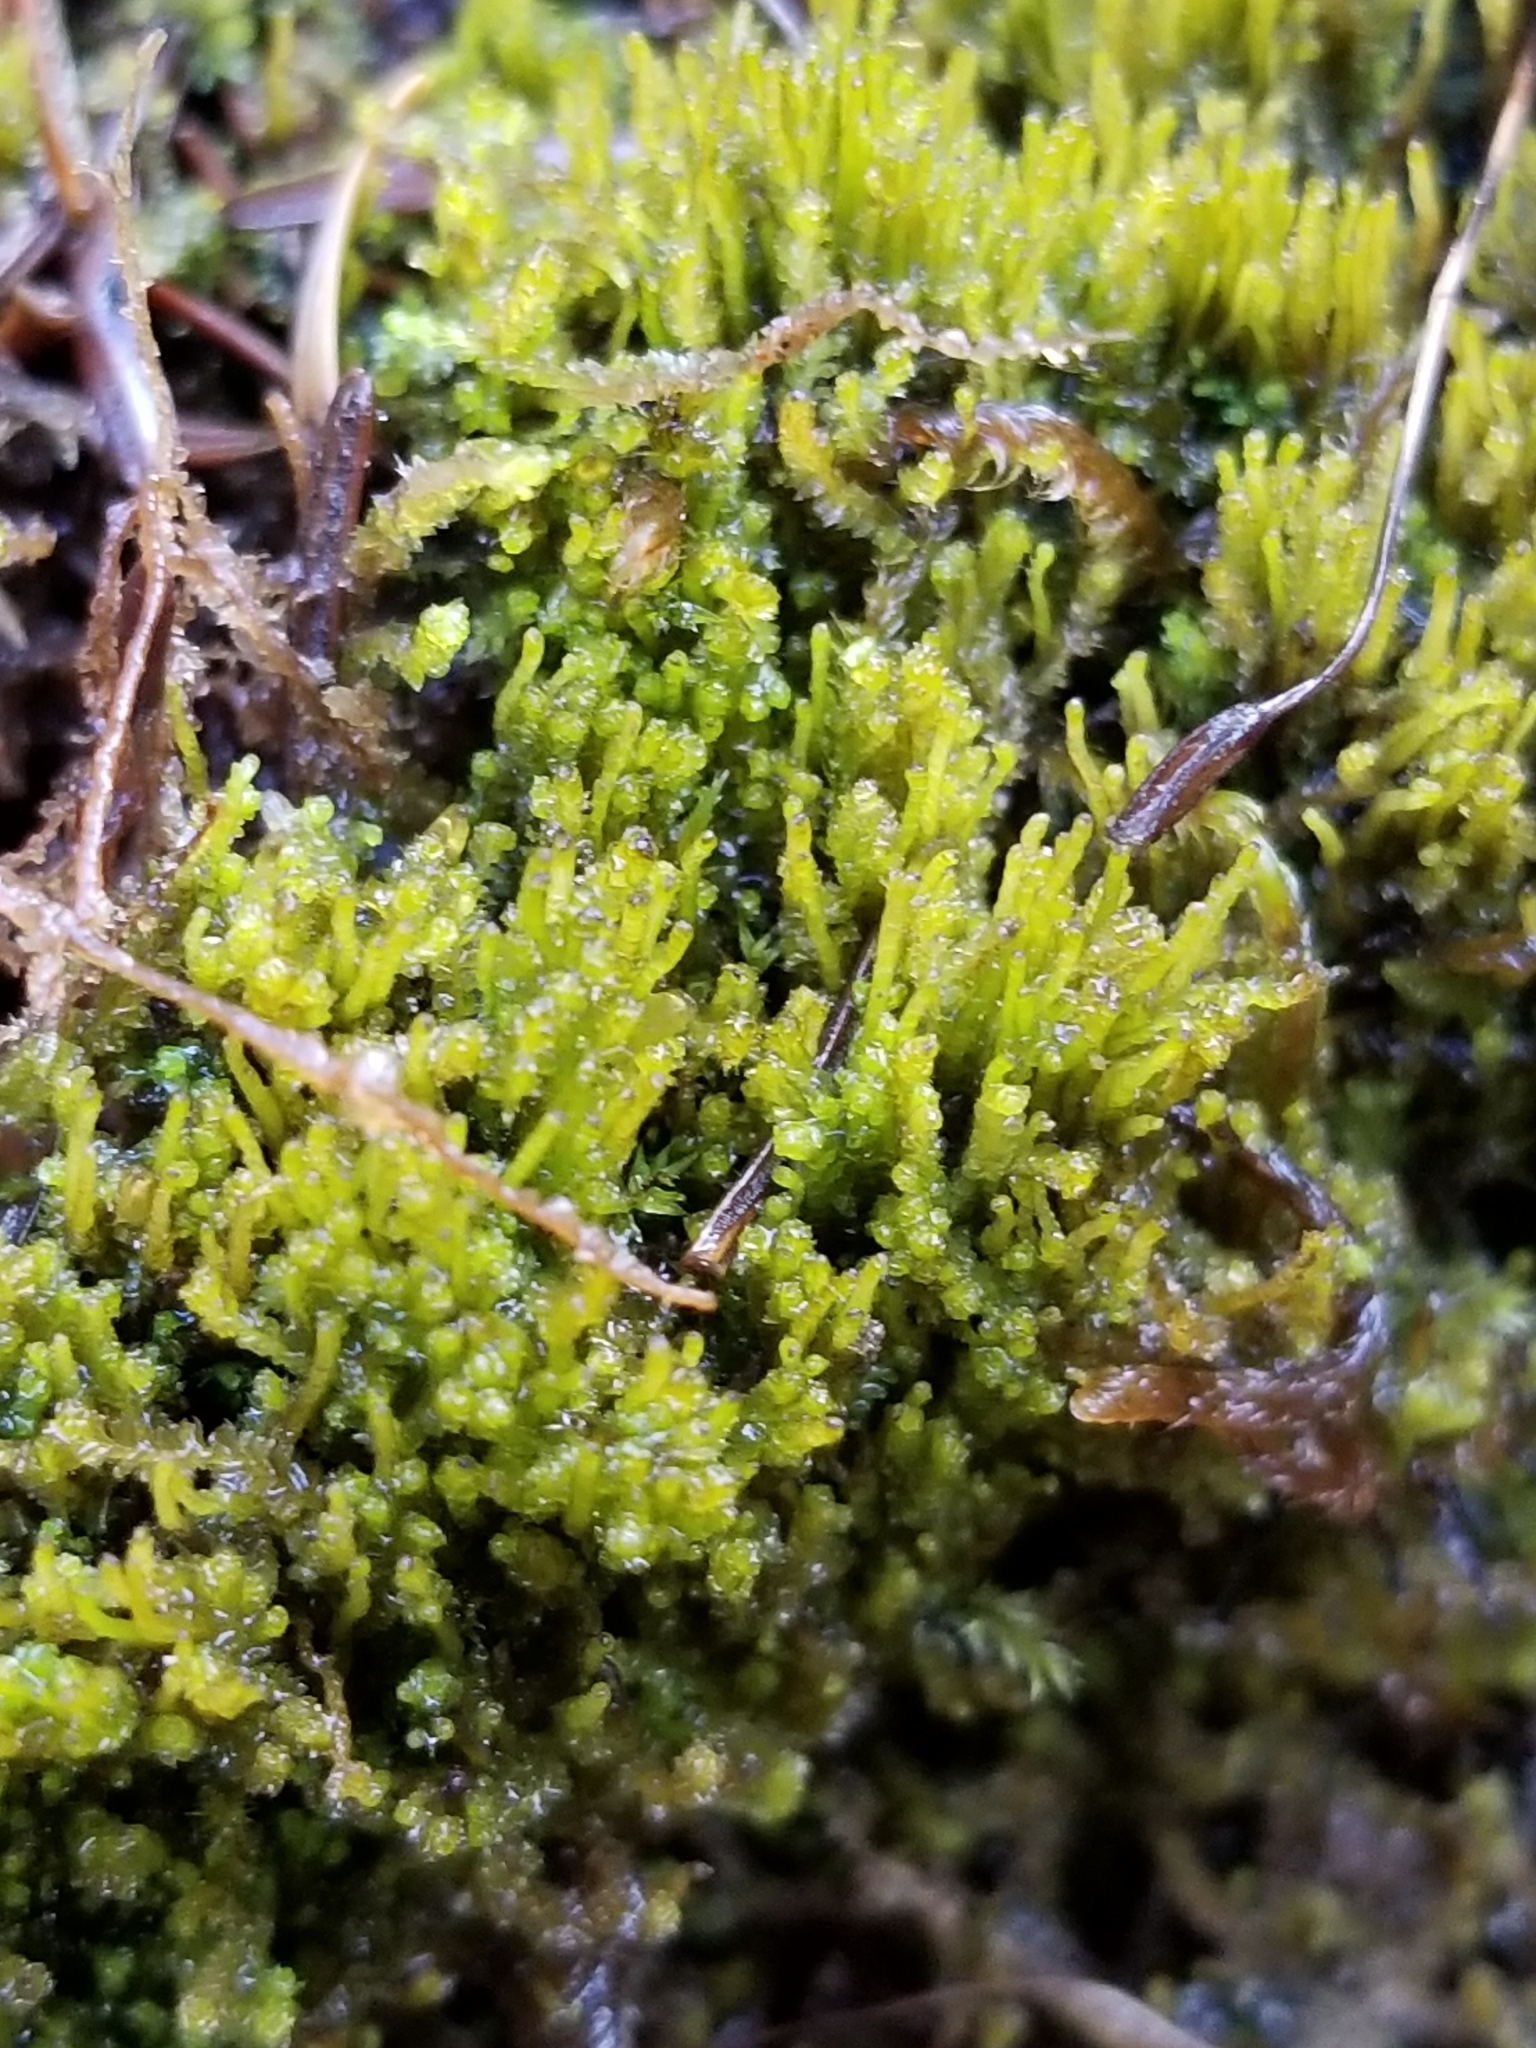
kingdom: Plantae
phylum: Marchantiophyta
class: Jungermanniopsida
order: Jungermanniales
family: Anastrophyllaceae
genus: Neoorthocaulis
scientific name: Neoorthocaulis attenuatus
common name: Trunk pawwort
